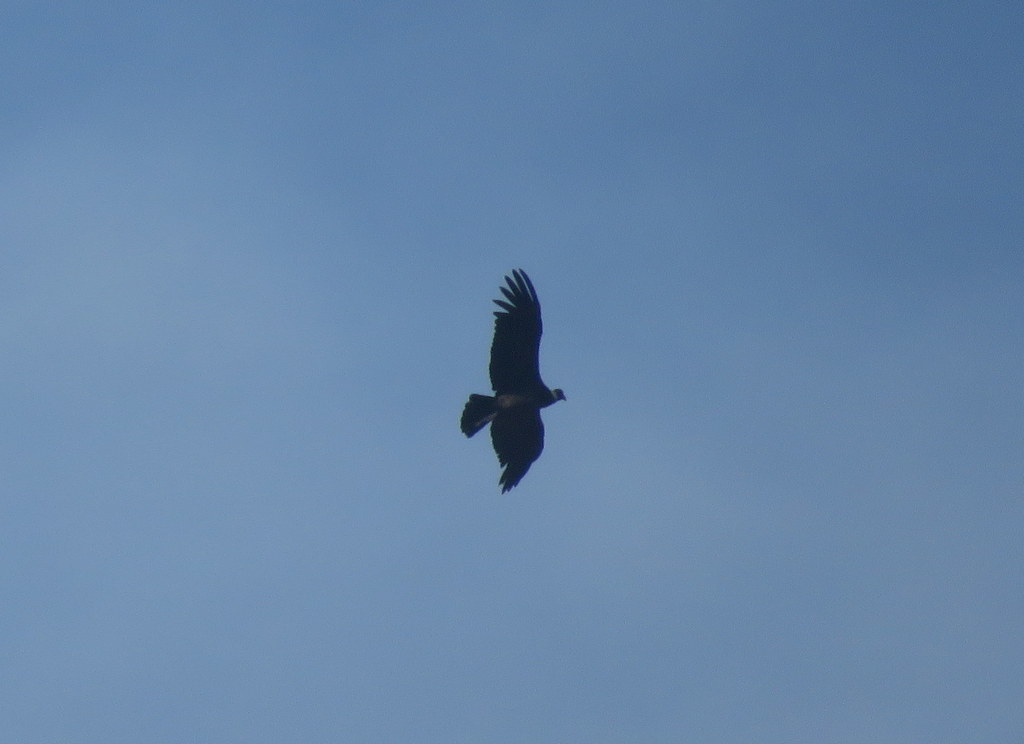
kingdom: Animalia
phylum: Chordata
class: Aves
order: Accipitriformes
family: Cathartidae
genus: Vultur
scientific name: Vultur gryphus
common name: Andean condor
